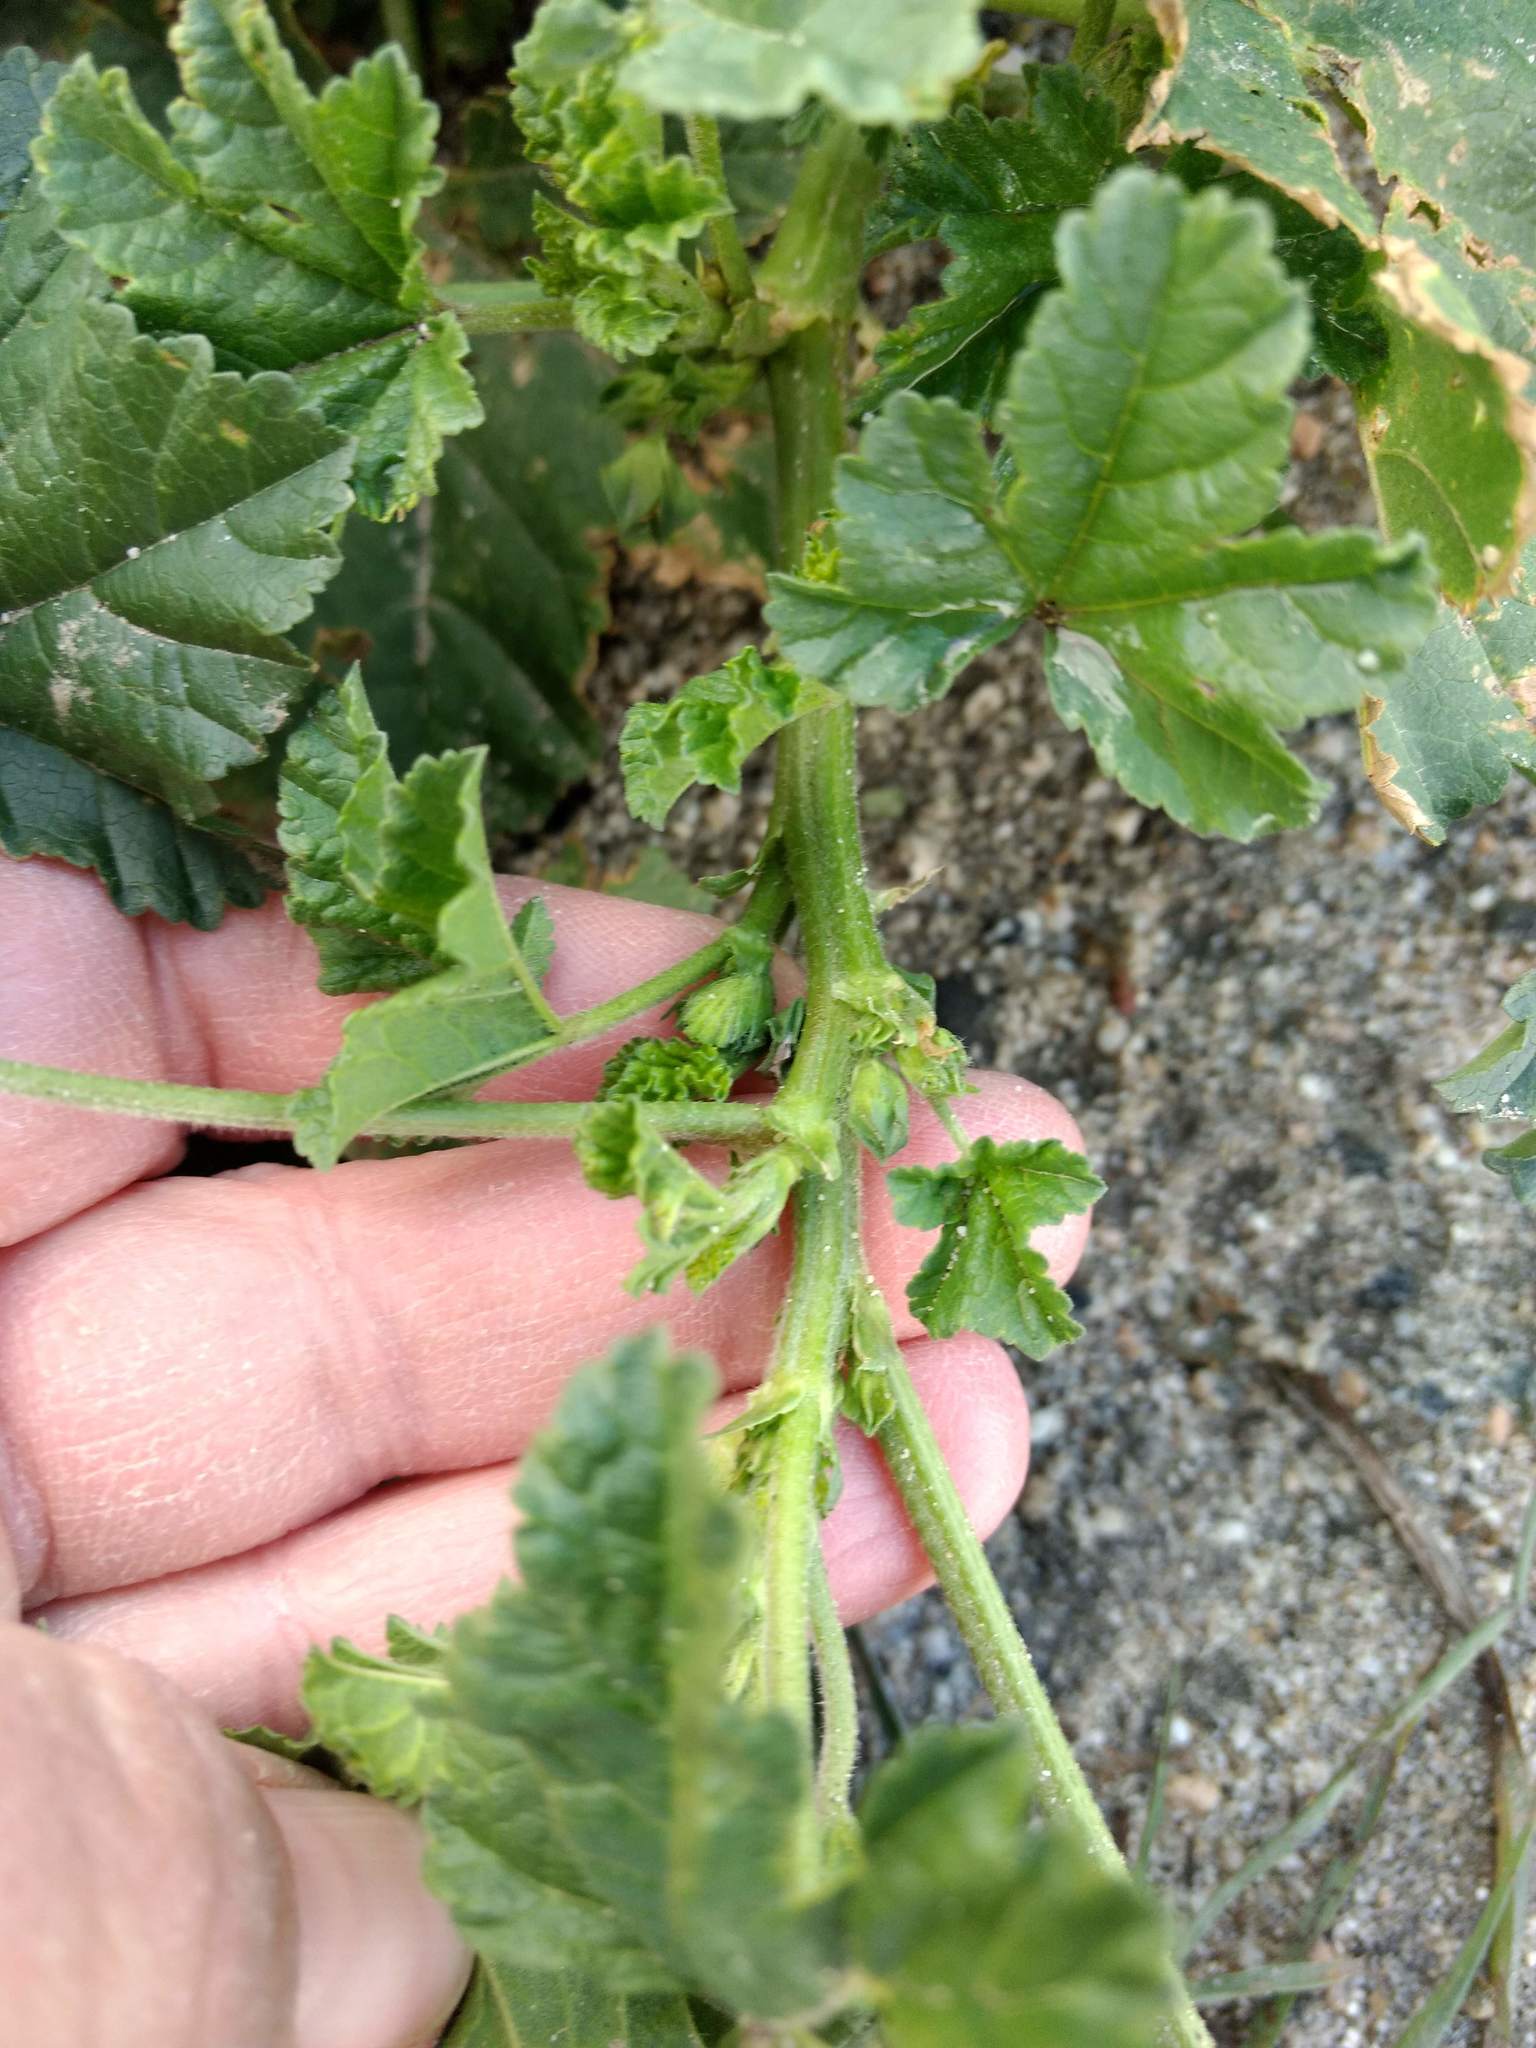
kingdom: Plantae
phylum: Tracheophyta
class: Magnoliopsida
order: Malvales
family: Malvaceae
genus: Malva
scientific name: Malva parviflora
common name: Least mallow
